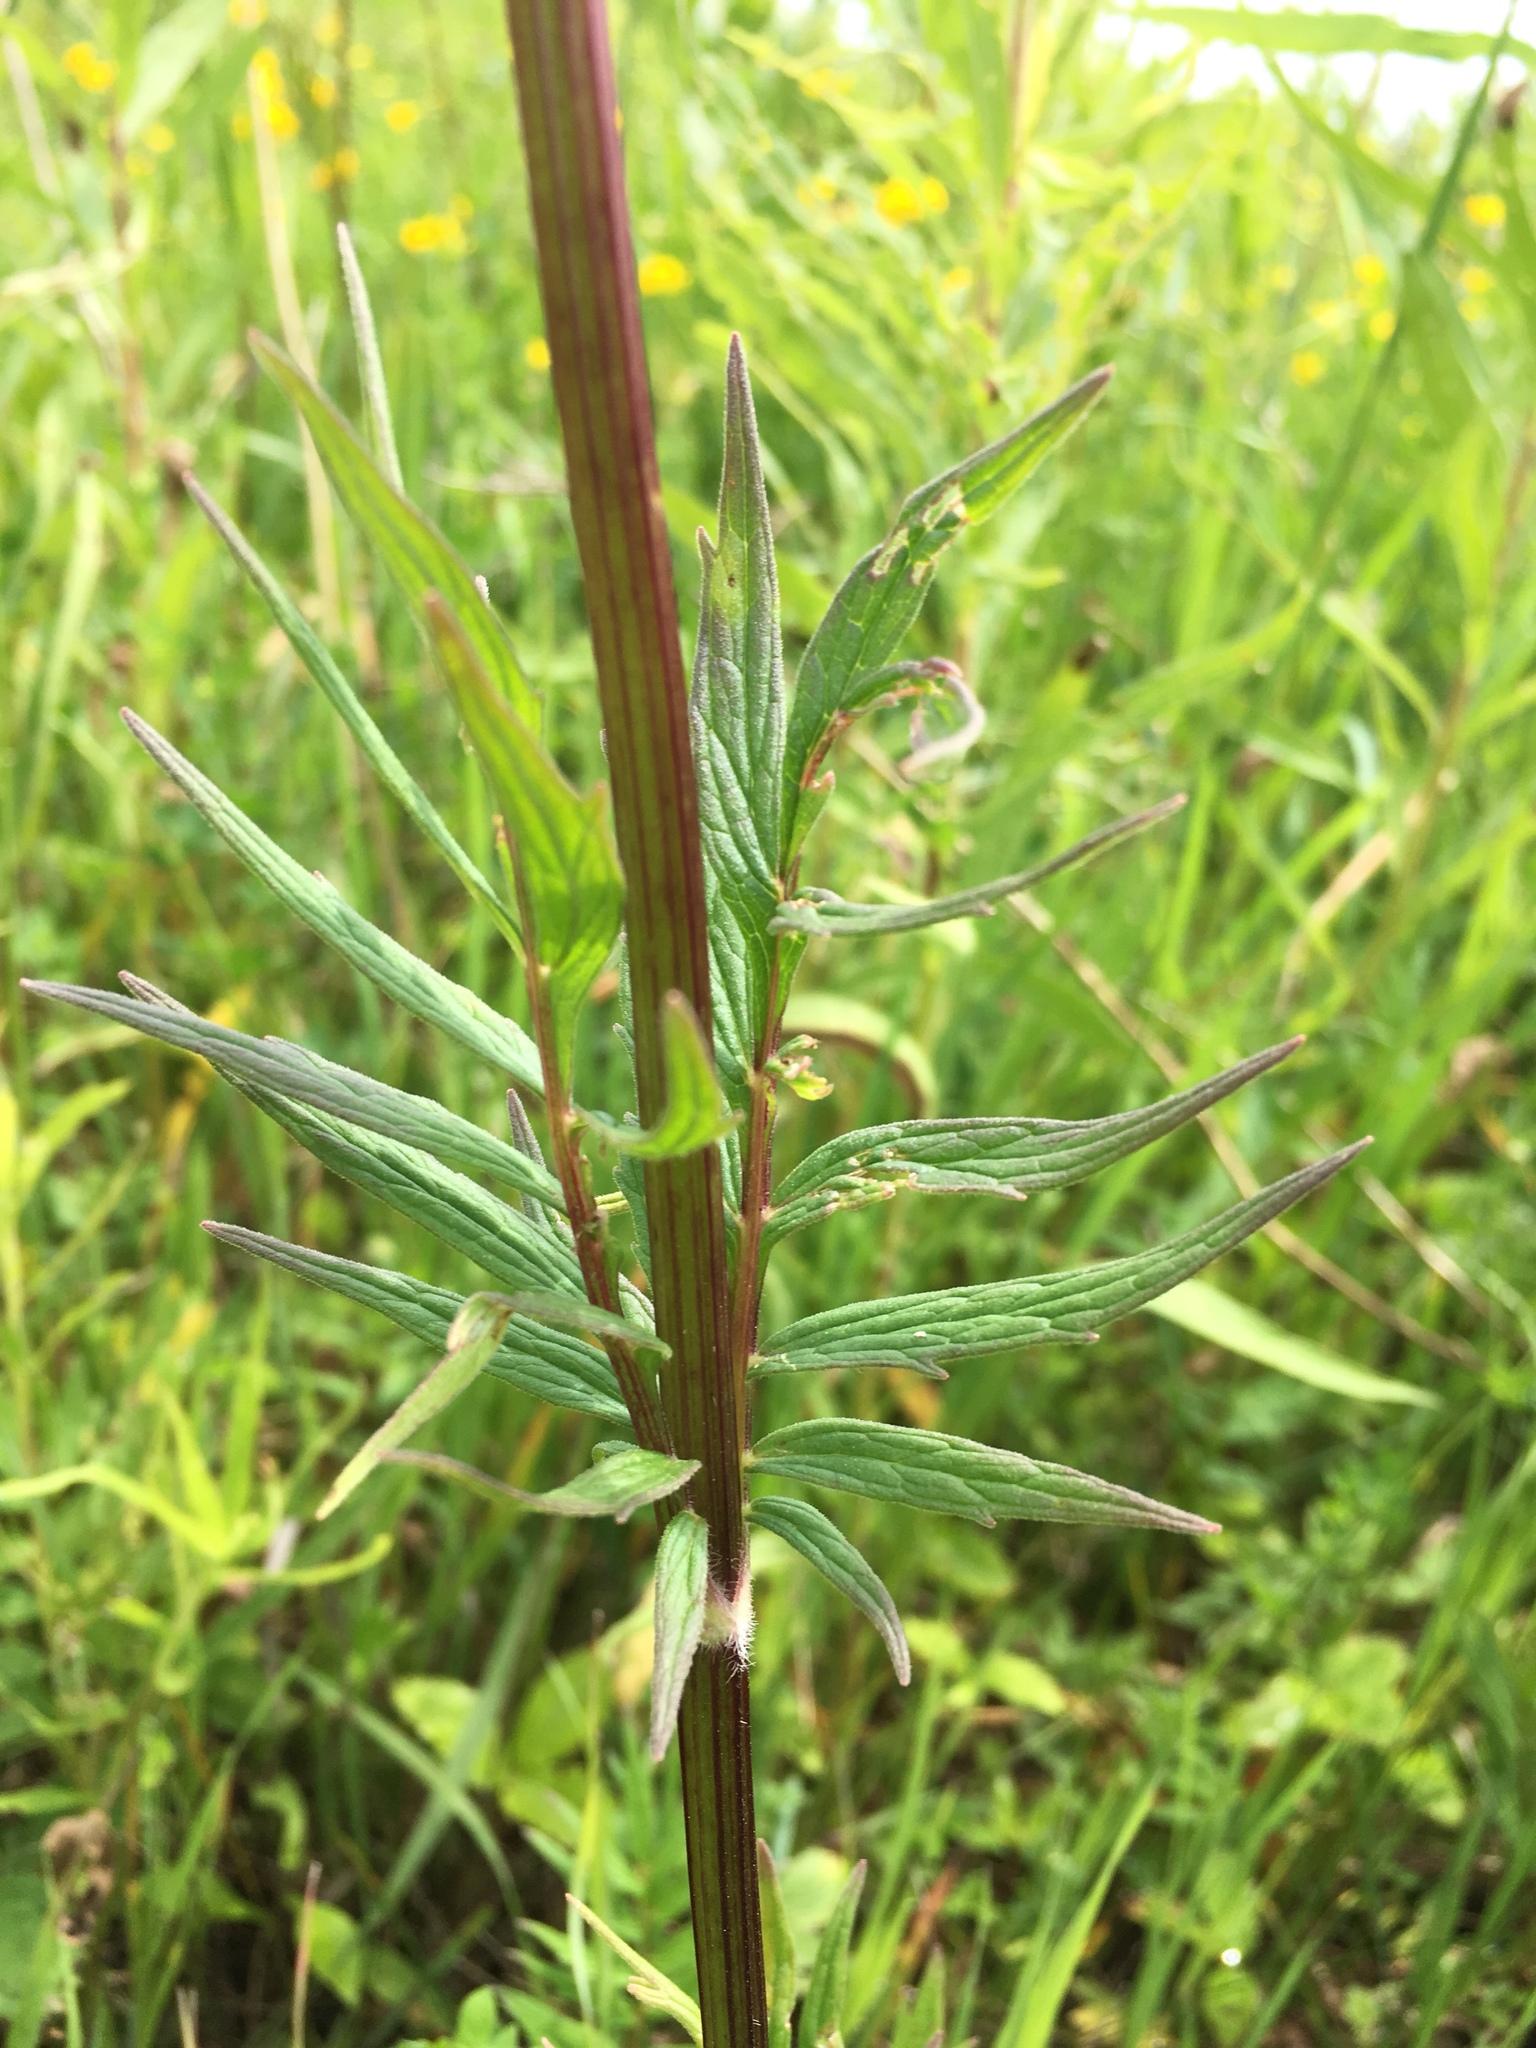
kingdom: Plantae
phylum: Tracheophyta
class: Magnoliopsida
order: Dipsacales
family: Caprifoliaceae
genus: Valeriana
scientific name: Valeriana officinalis
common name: Common valerian
